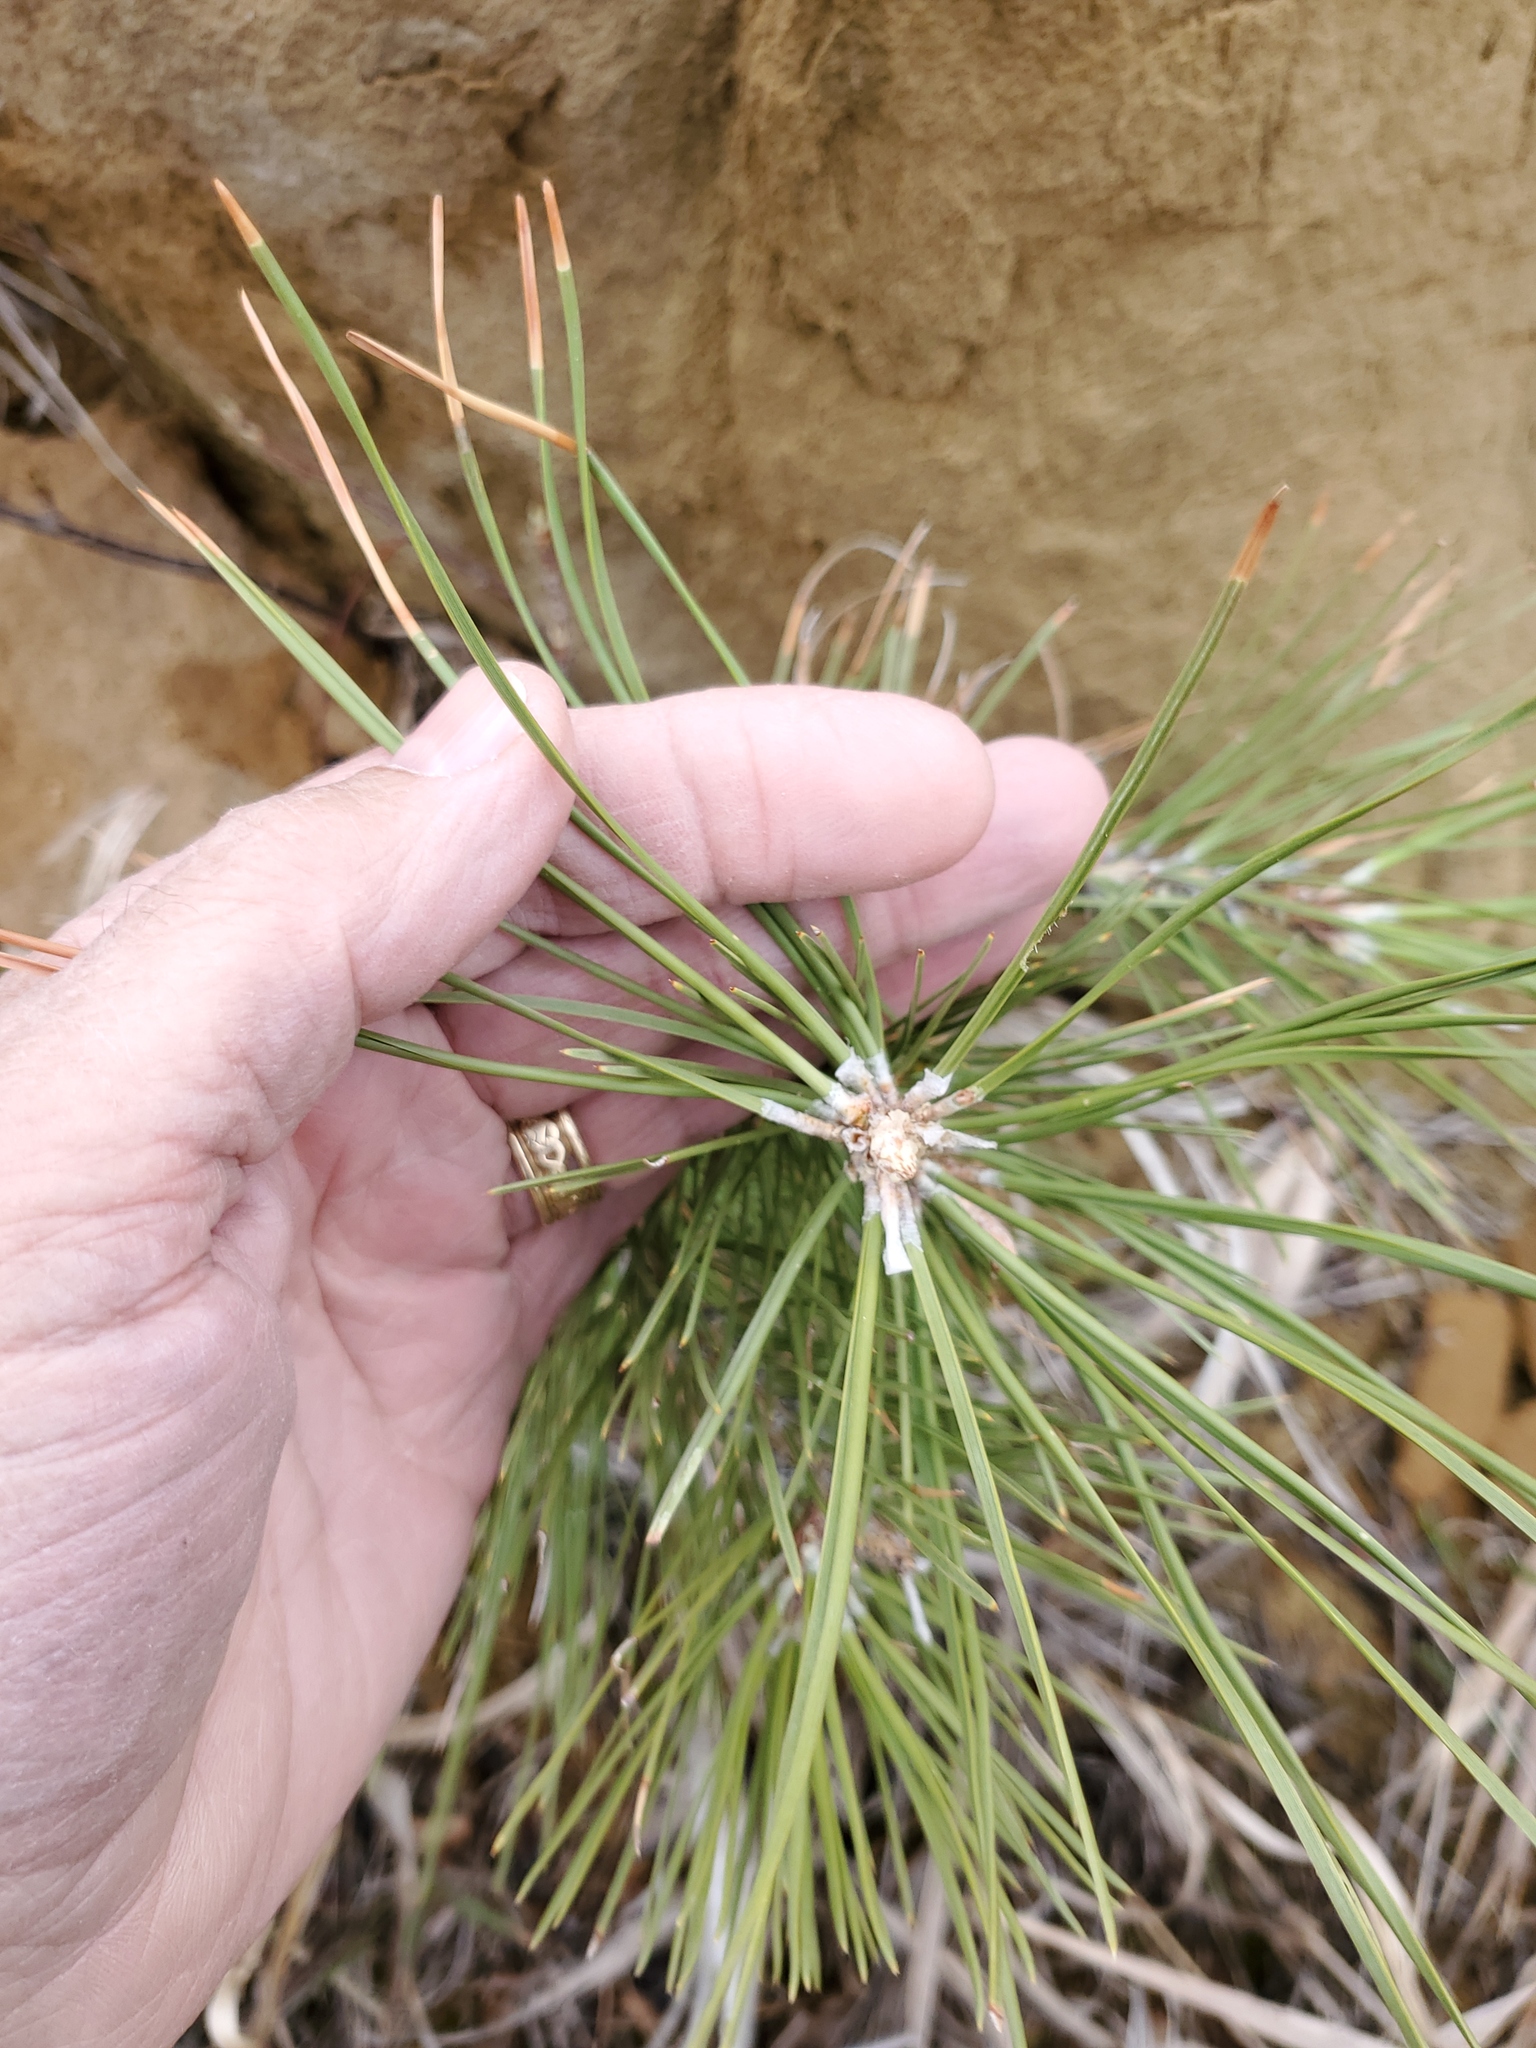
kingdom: Plantae
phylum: Tracheophyta
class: Pinopsida
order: Pinales
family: Pinaceae
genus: Pinus
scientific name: Pinus ponderosa
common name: Western yellow-pine
